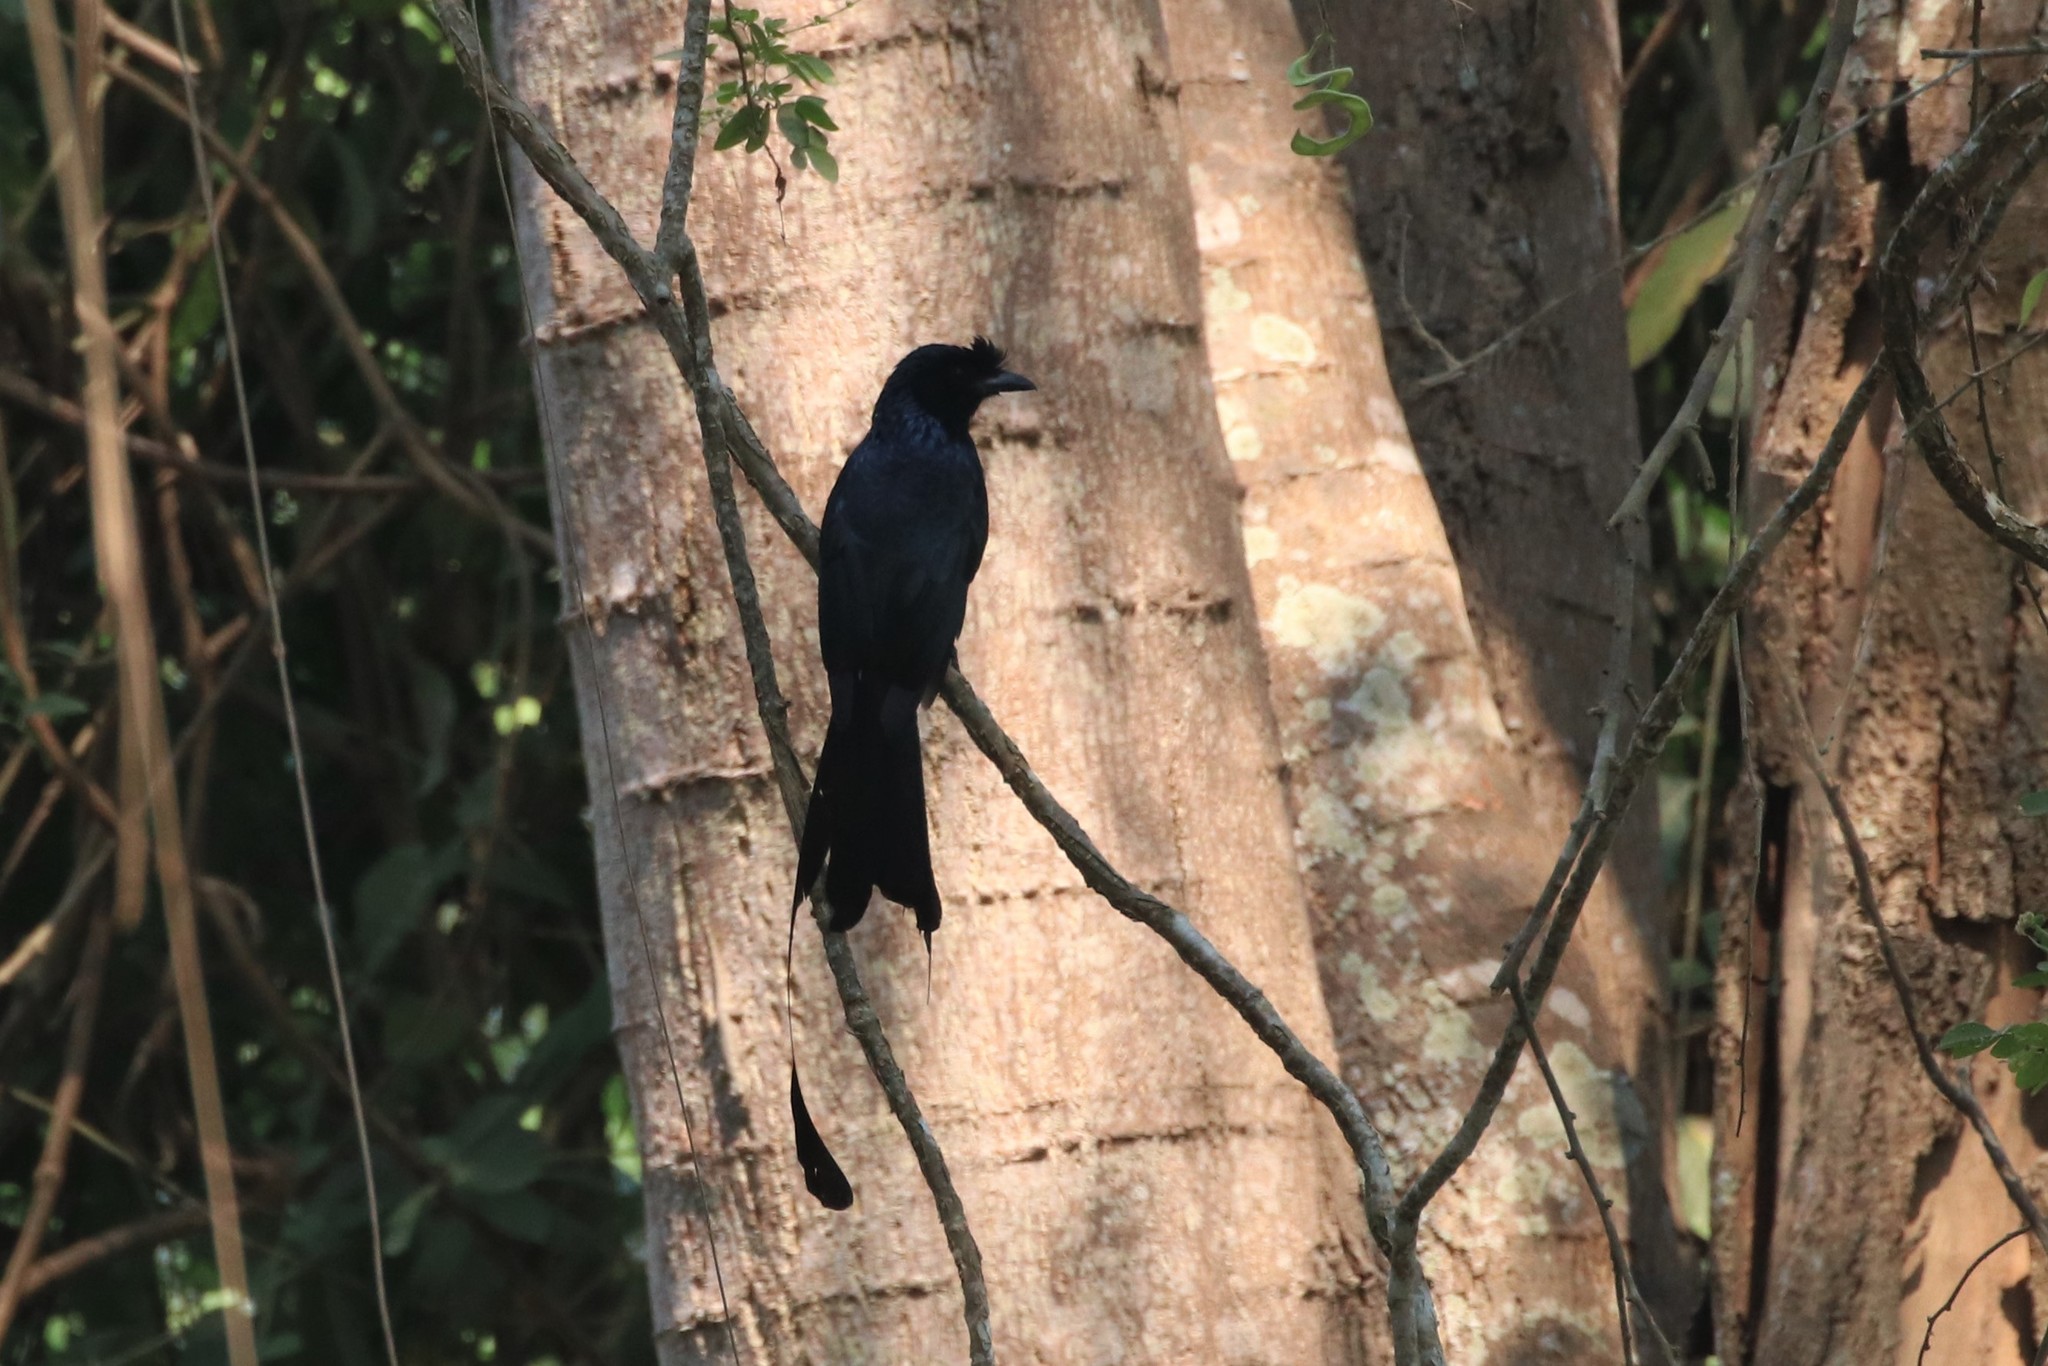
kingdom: Animalia
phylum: Chordata
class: Aves
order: Passeriformes
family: Dicruridae
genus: Dicrurus
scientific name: Dicrurus paradiseus
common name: Greater racket-tailed drongo
